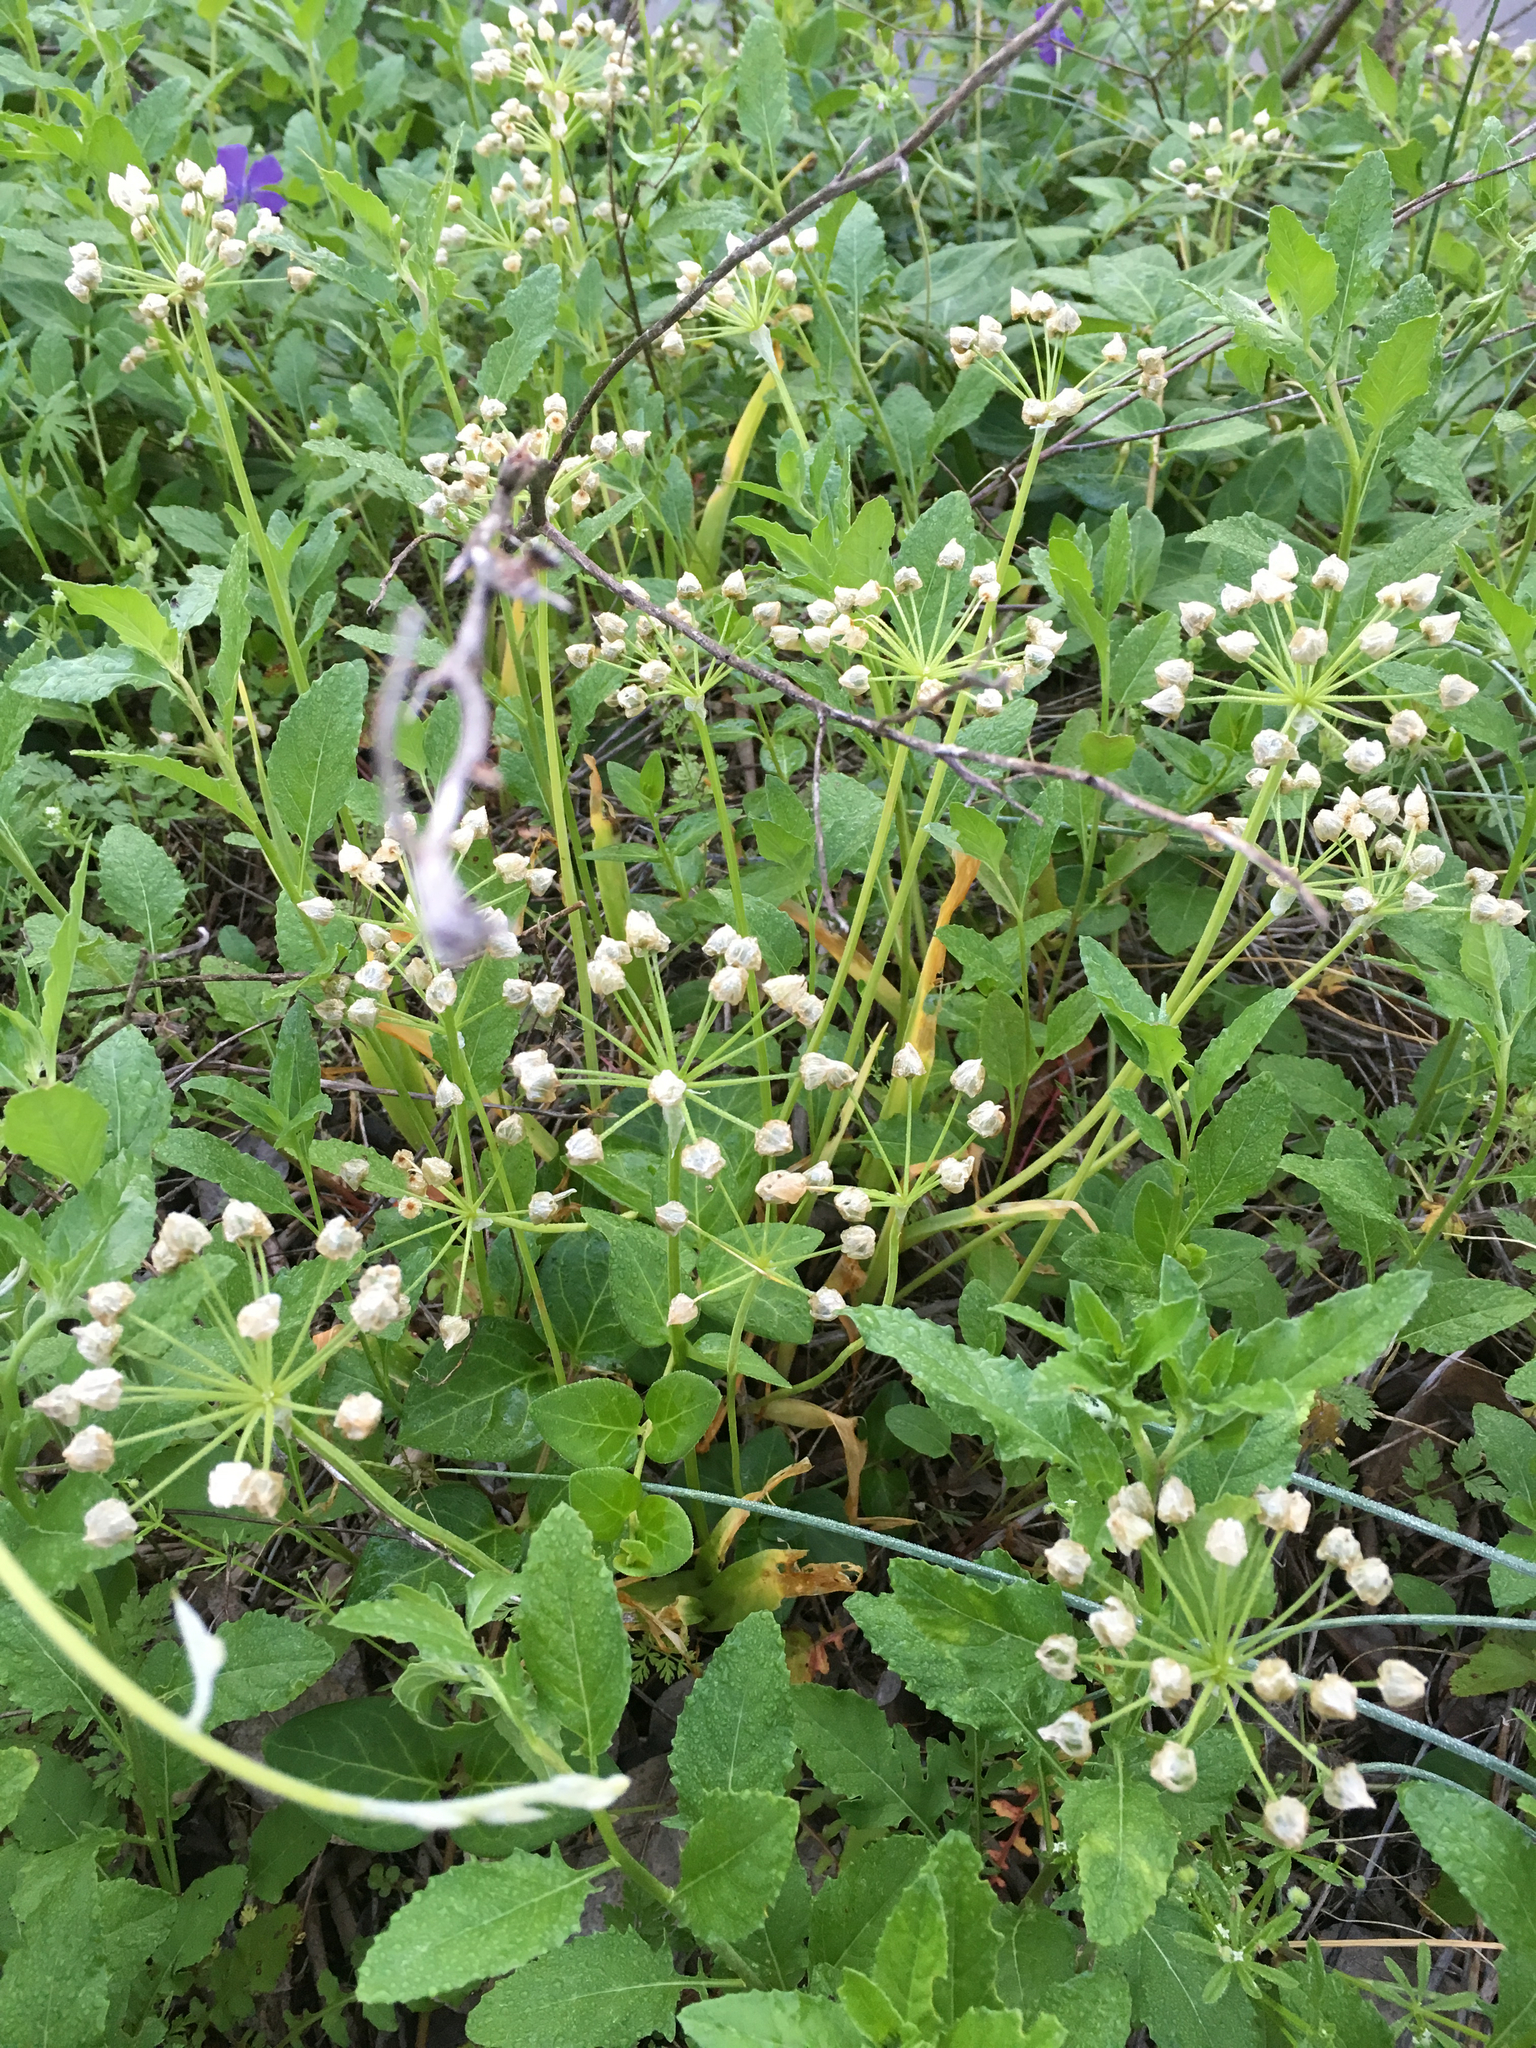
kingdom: Plantae
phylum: Tracheophyta
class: Liliopsida
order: Asparagales
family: Amaryllidaceae
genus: Allium
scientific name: Allium neapolitanum
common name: Neapolitan garlic
